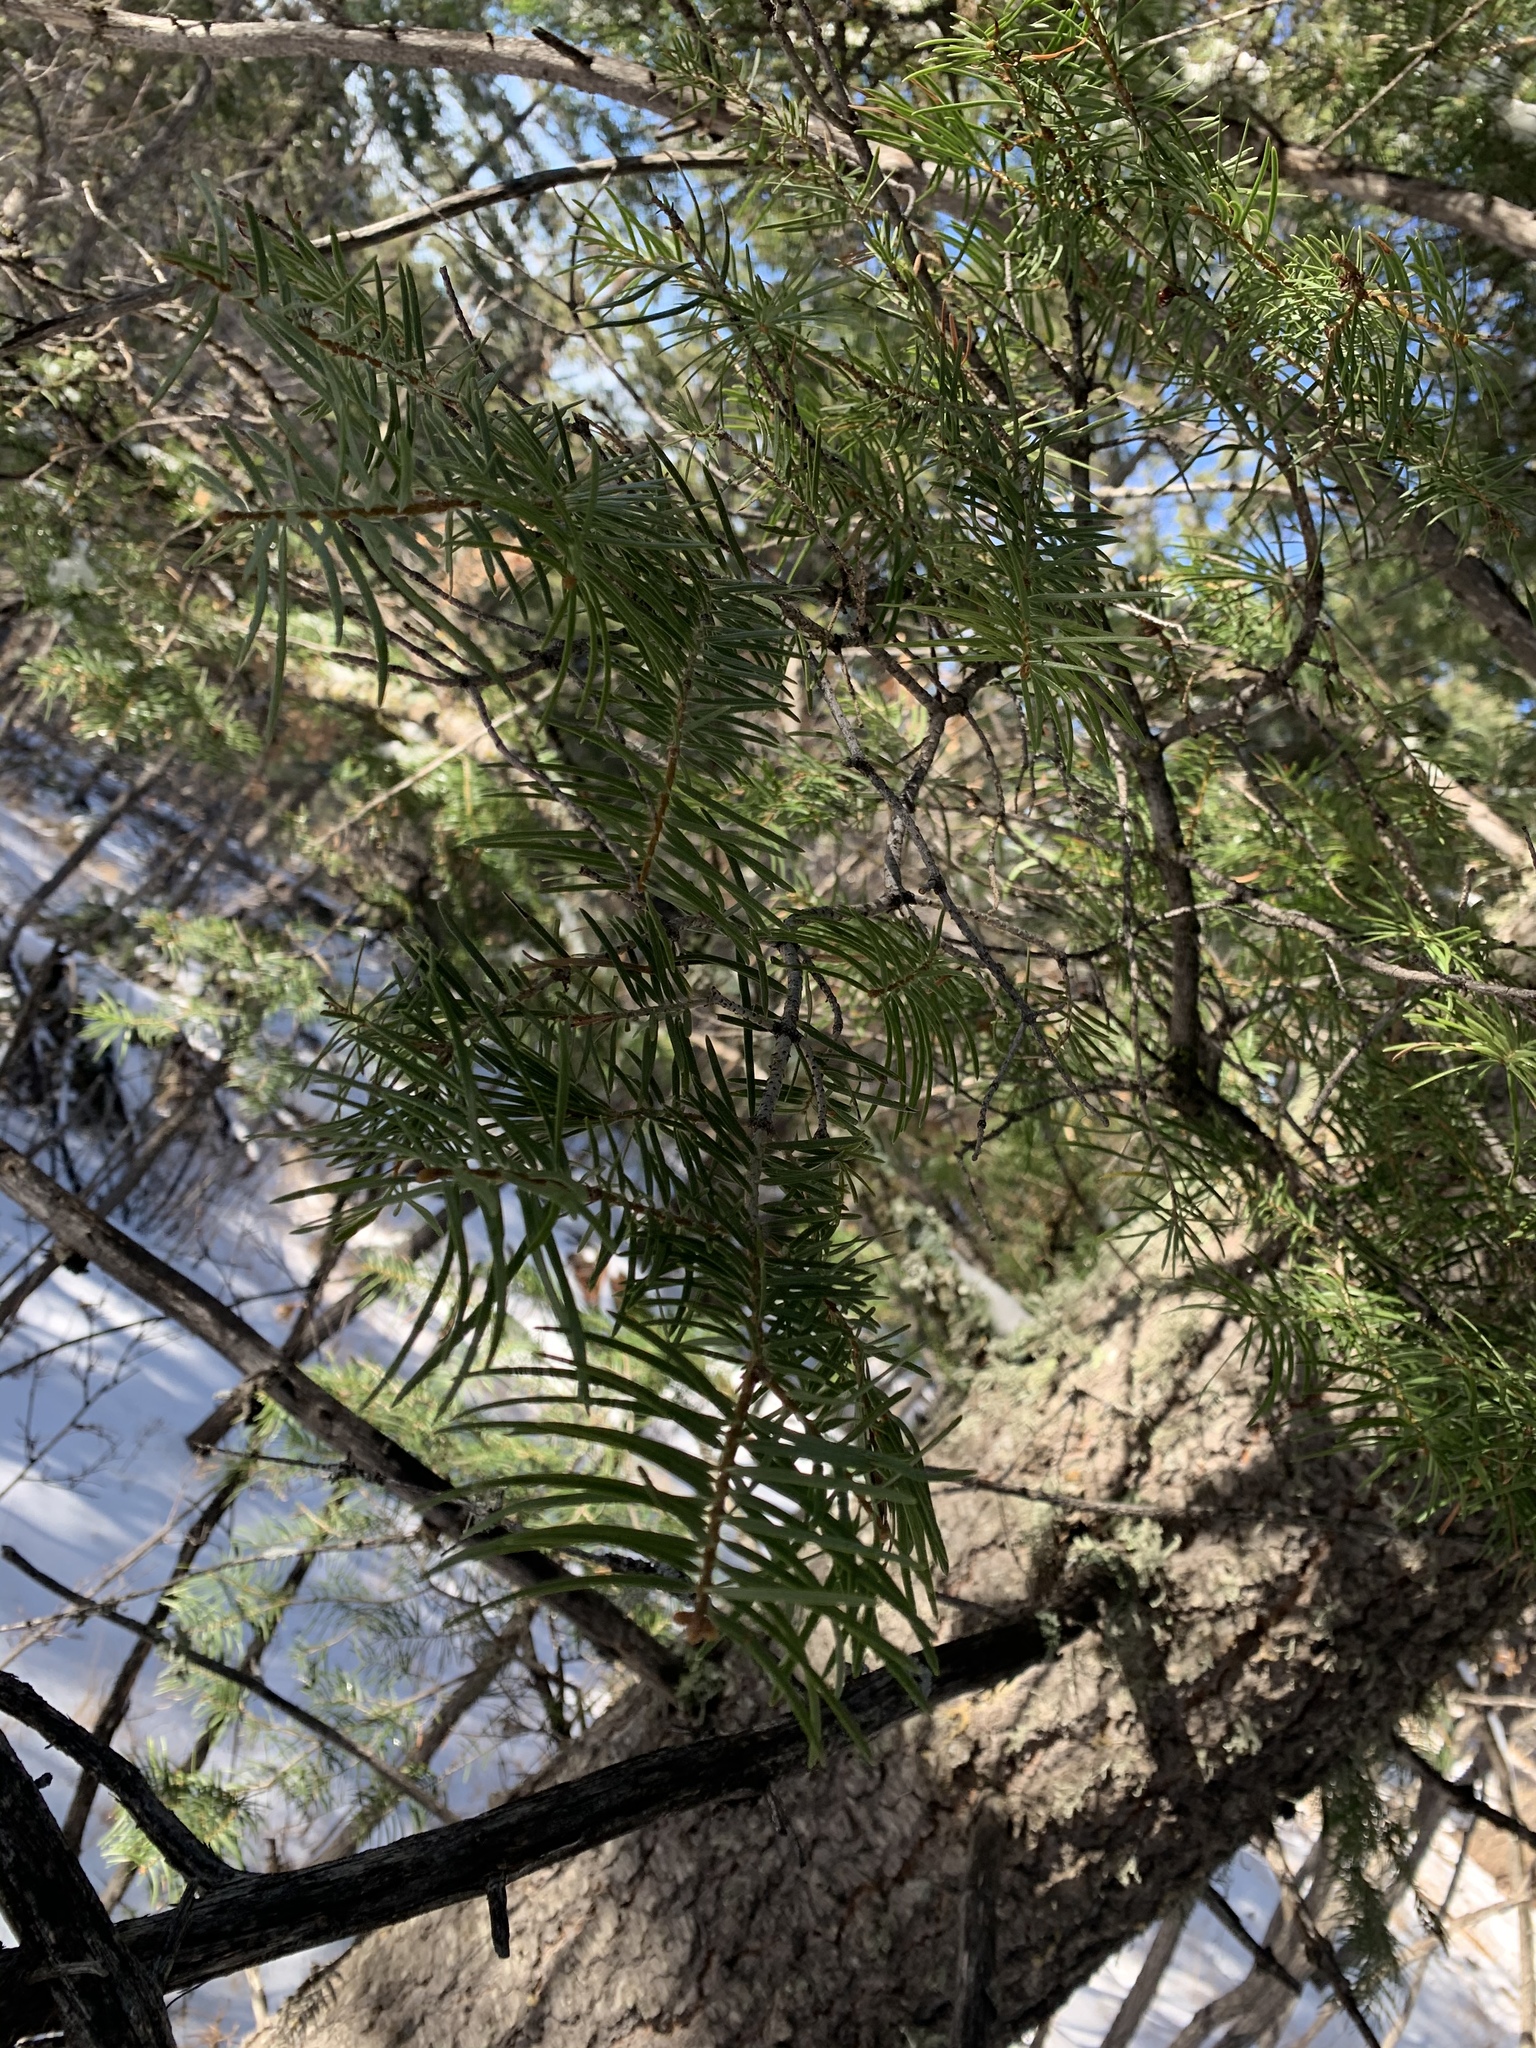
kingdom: Plantae
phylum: Tracheophyta
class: Pinopsida
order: Pinales
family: Pinaceae
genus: Abies
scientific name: Abies concolor
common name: Colorado fir
